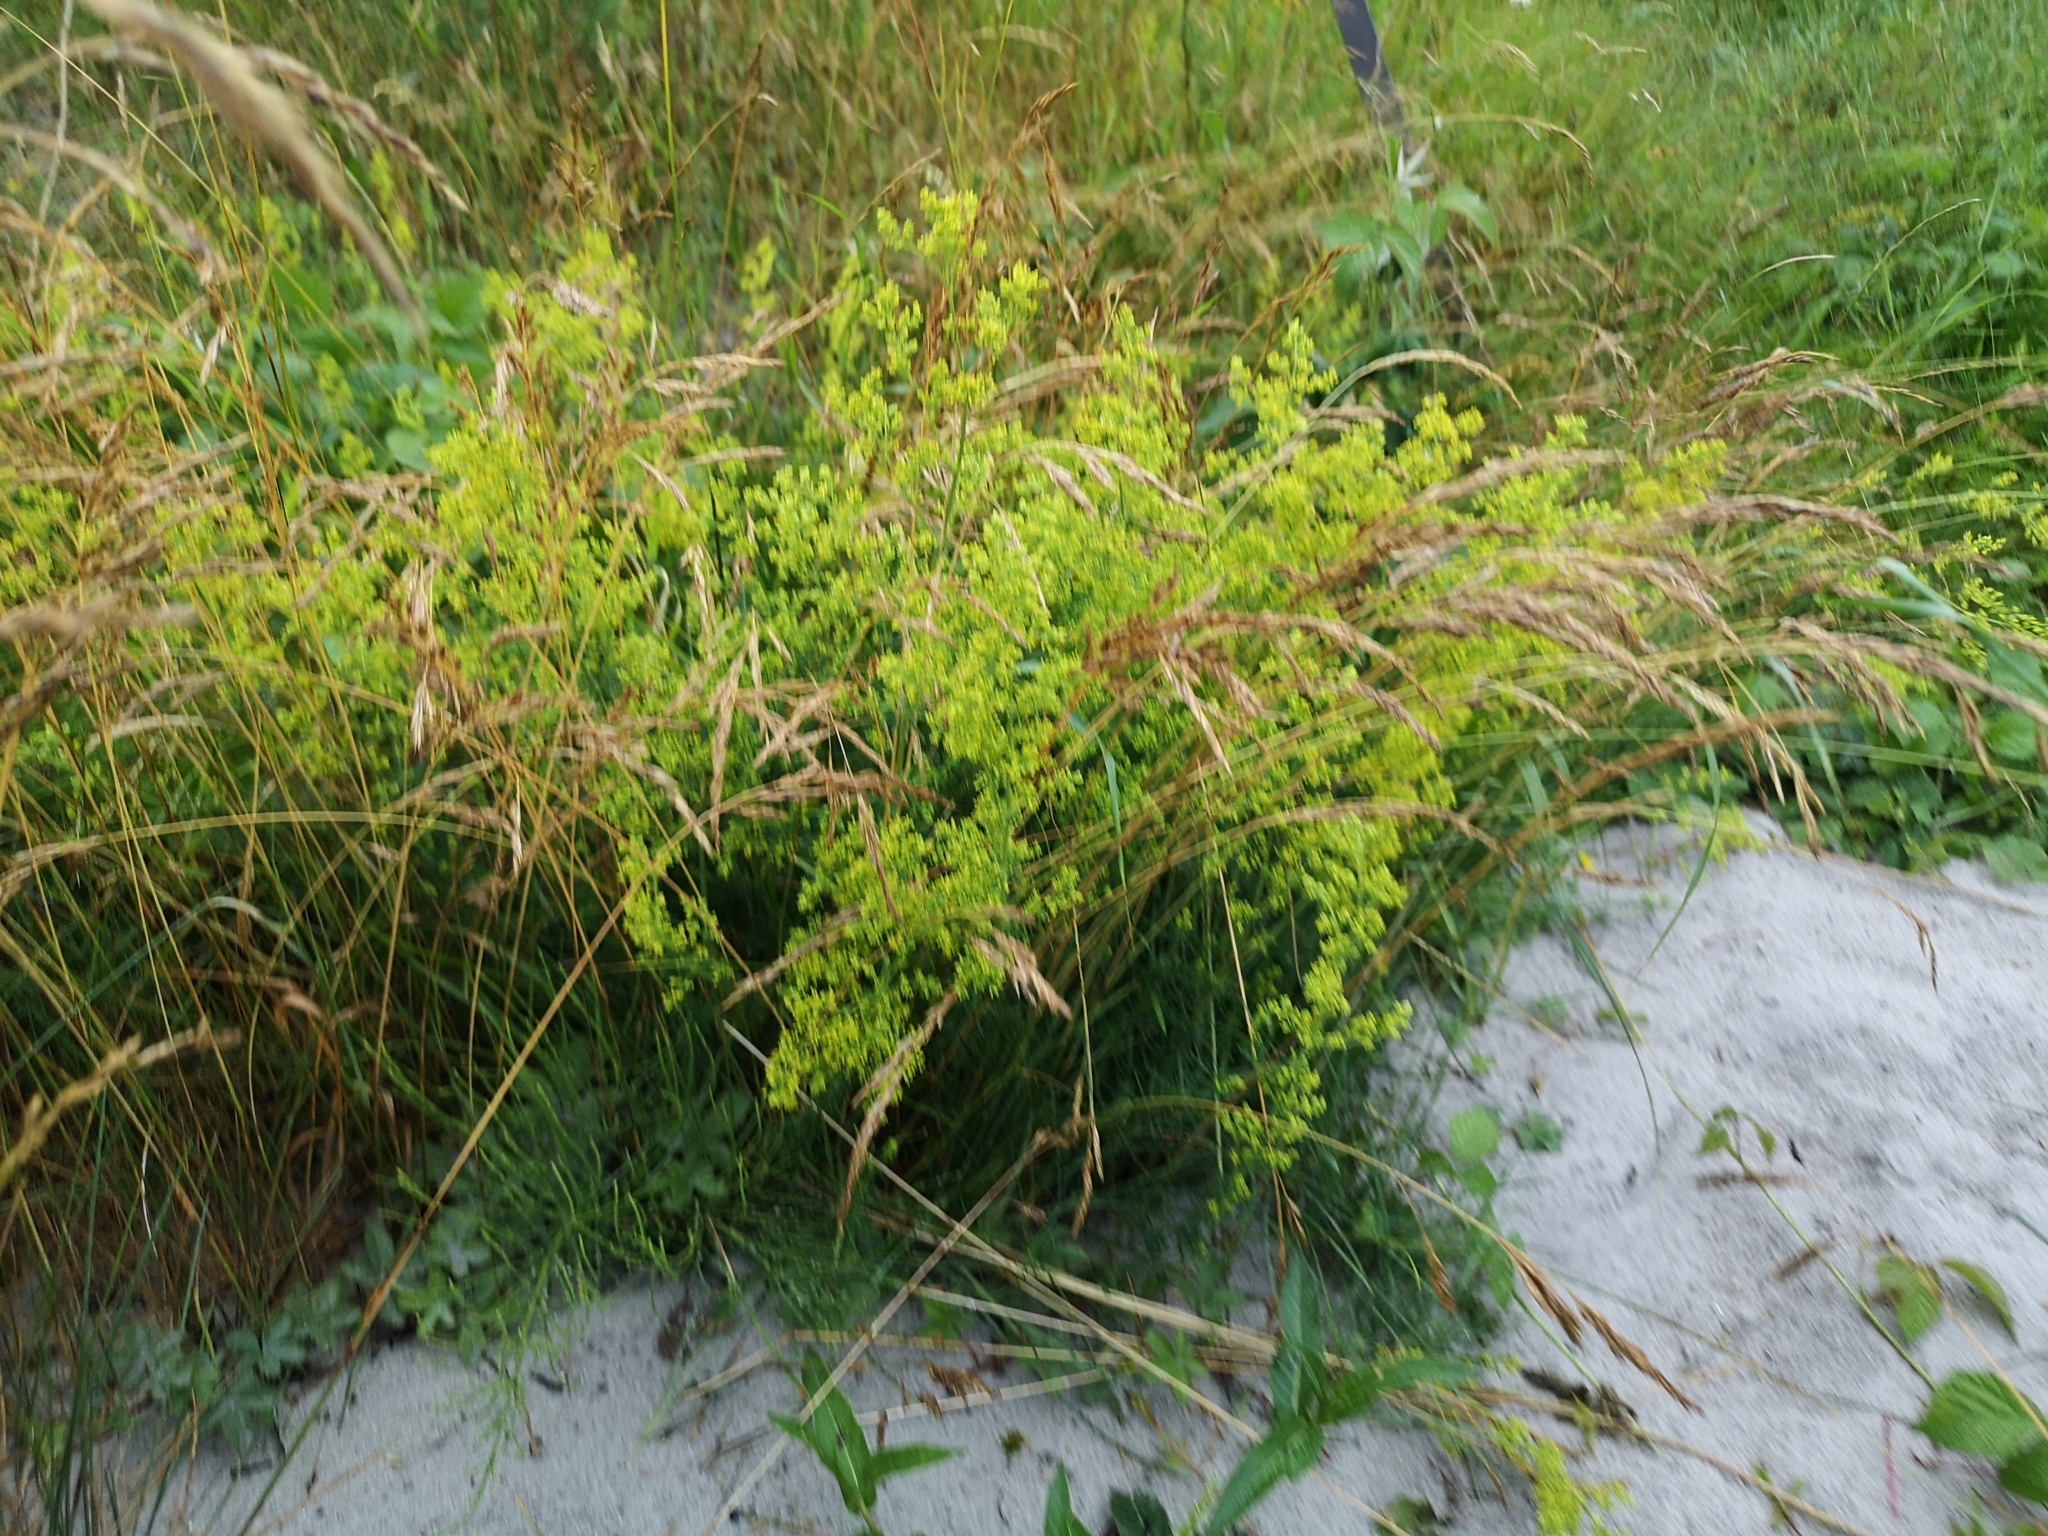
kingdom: Plantae
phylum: Tracheophyta
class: Magnoliopsida
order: Gentianales
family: Rubiaceae
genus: Galium
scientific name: Galium verum
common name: Lady's bedstraw
